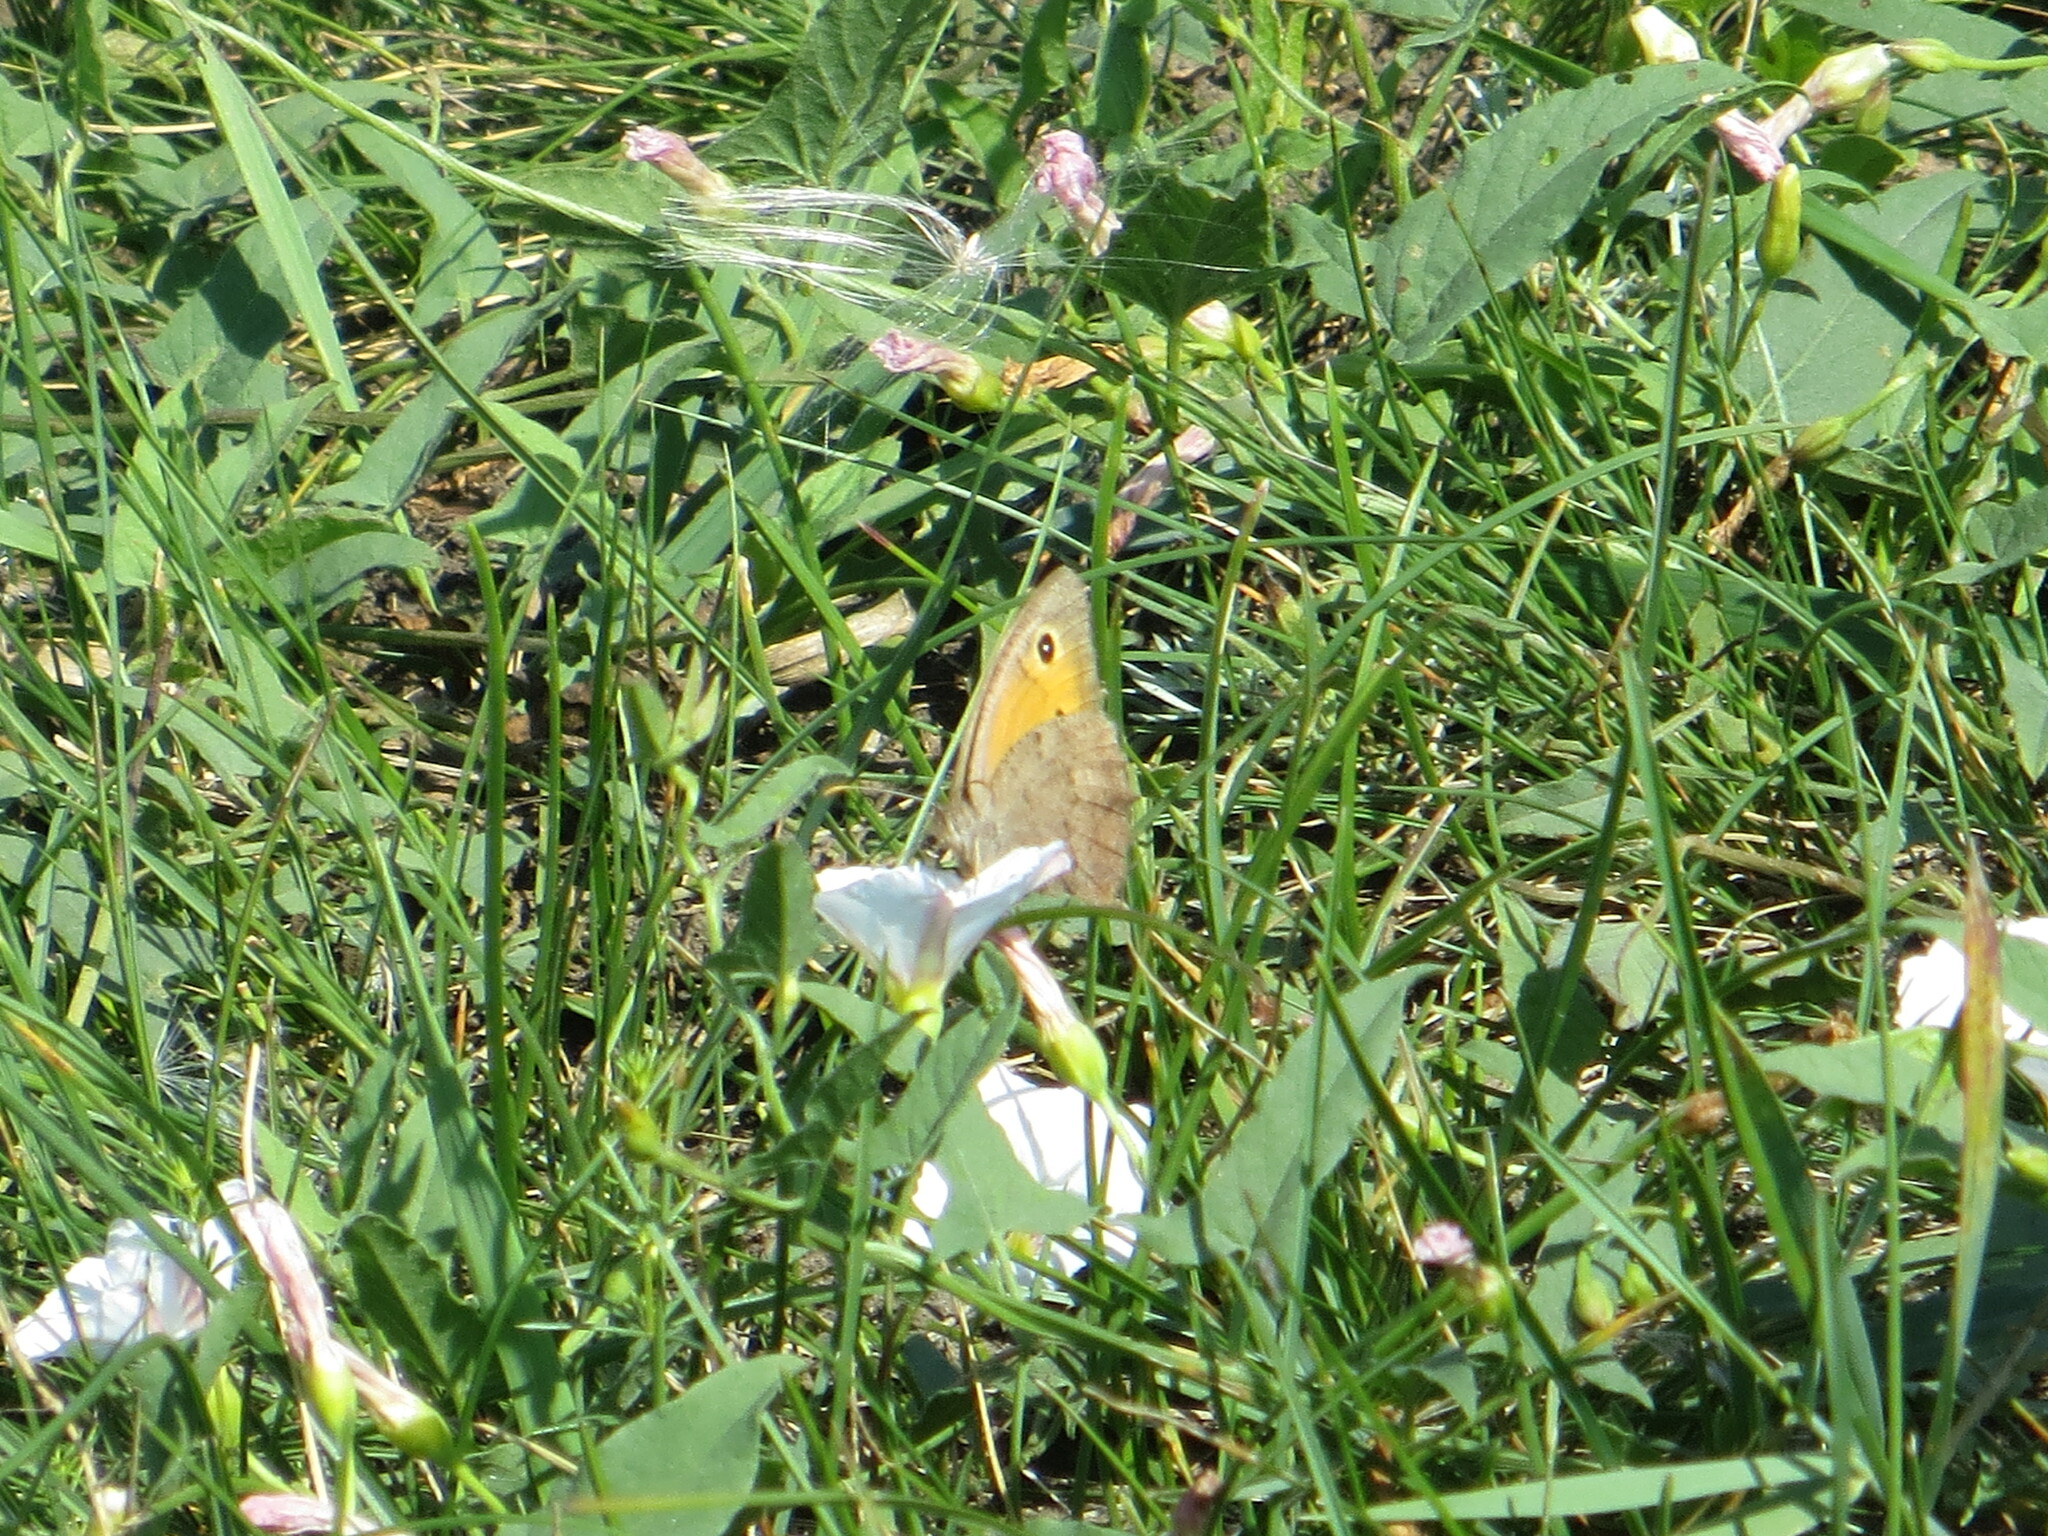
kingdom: Animalia
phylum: Arthropoda
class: Insecta
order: Lepidoptera
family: Nymphalidae
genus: Hyponephele
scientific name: Hyponephele lycaon
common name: Dusky meadow brown
